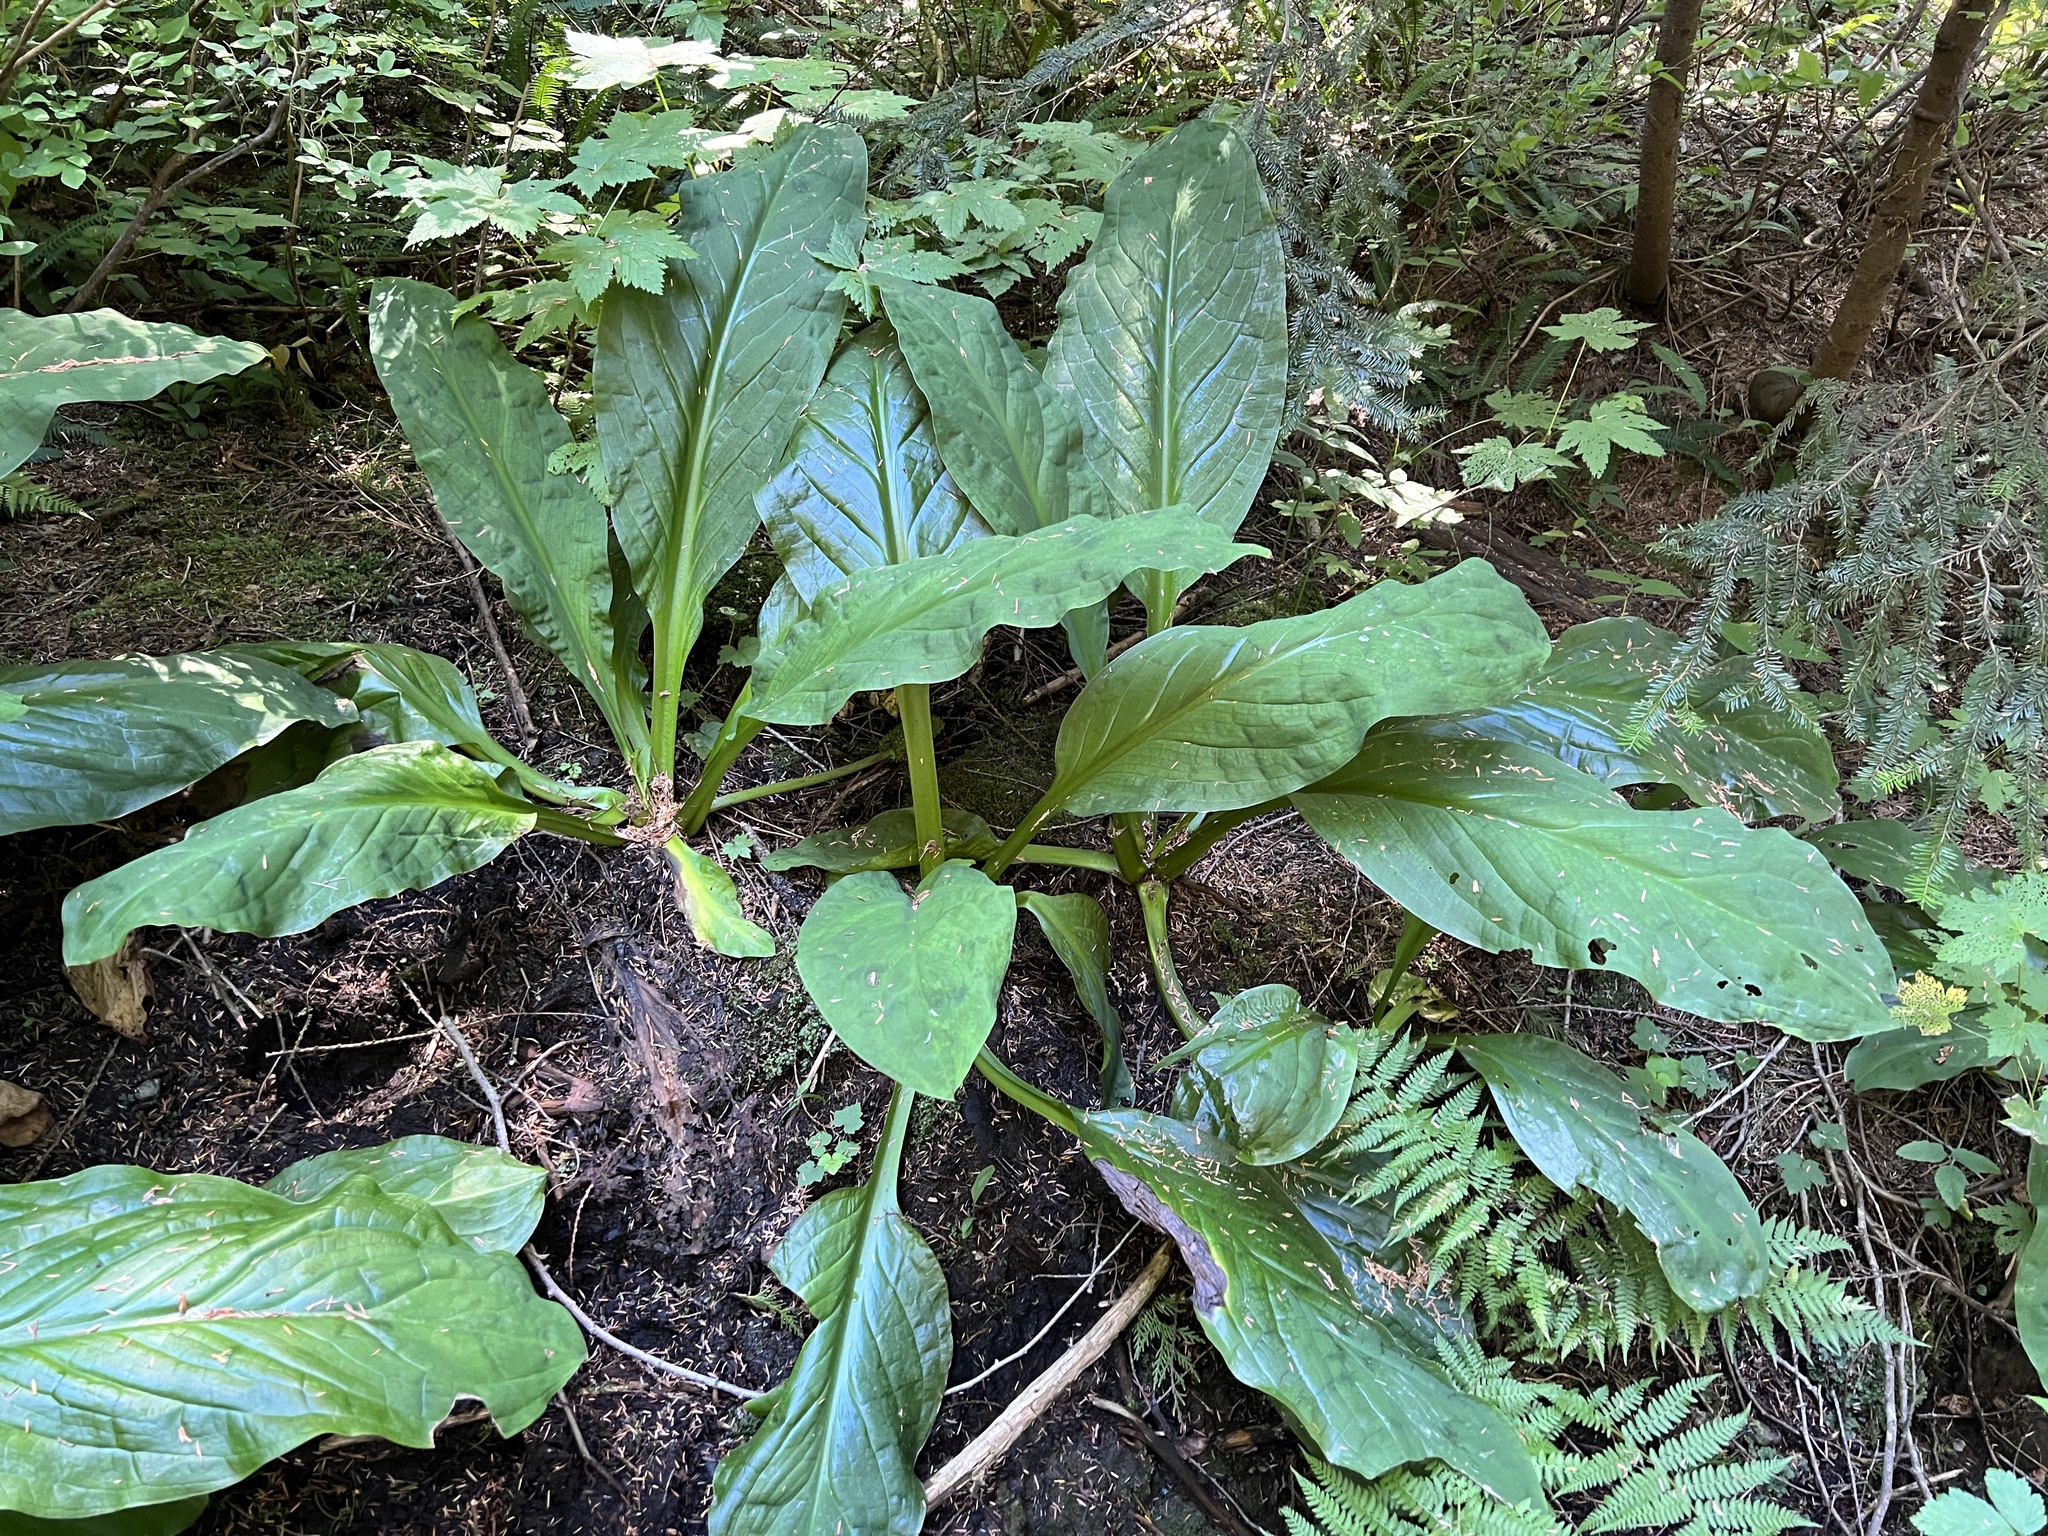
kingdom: Plantae
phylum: Tracheophyta
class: Liliopsida
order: Alismatales
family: Araceae
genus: Lysichiton
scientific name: Lysichiton americanus
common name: American skunk cabbage
